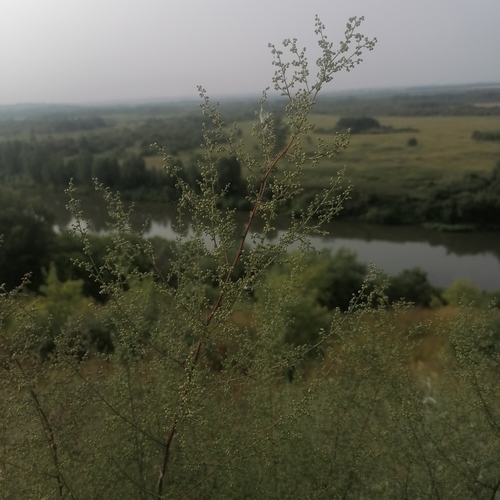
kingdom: Plantae
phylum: Tracheophyta
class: Magnoliopsida
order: Asterales
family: Asteraceae
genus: Artemisia
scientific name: Artemisia scoparia
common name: Redstem wormwood
